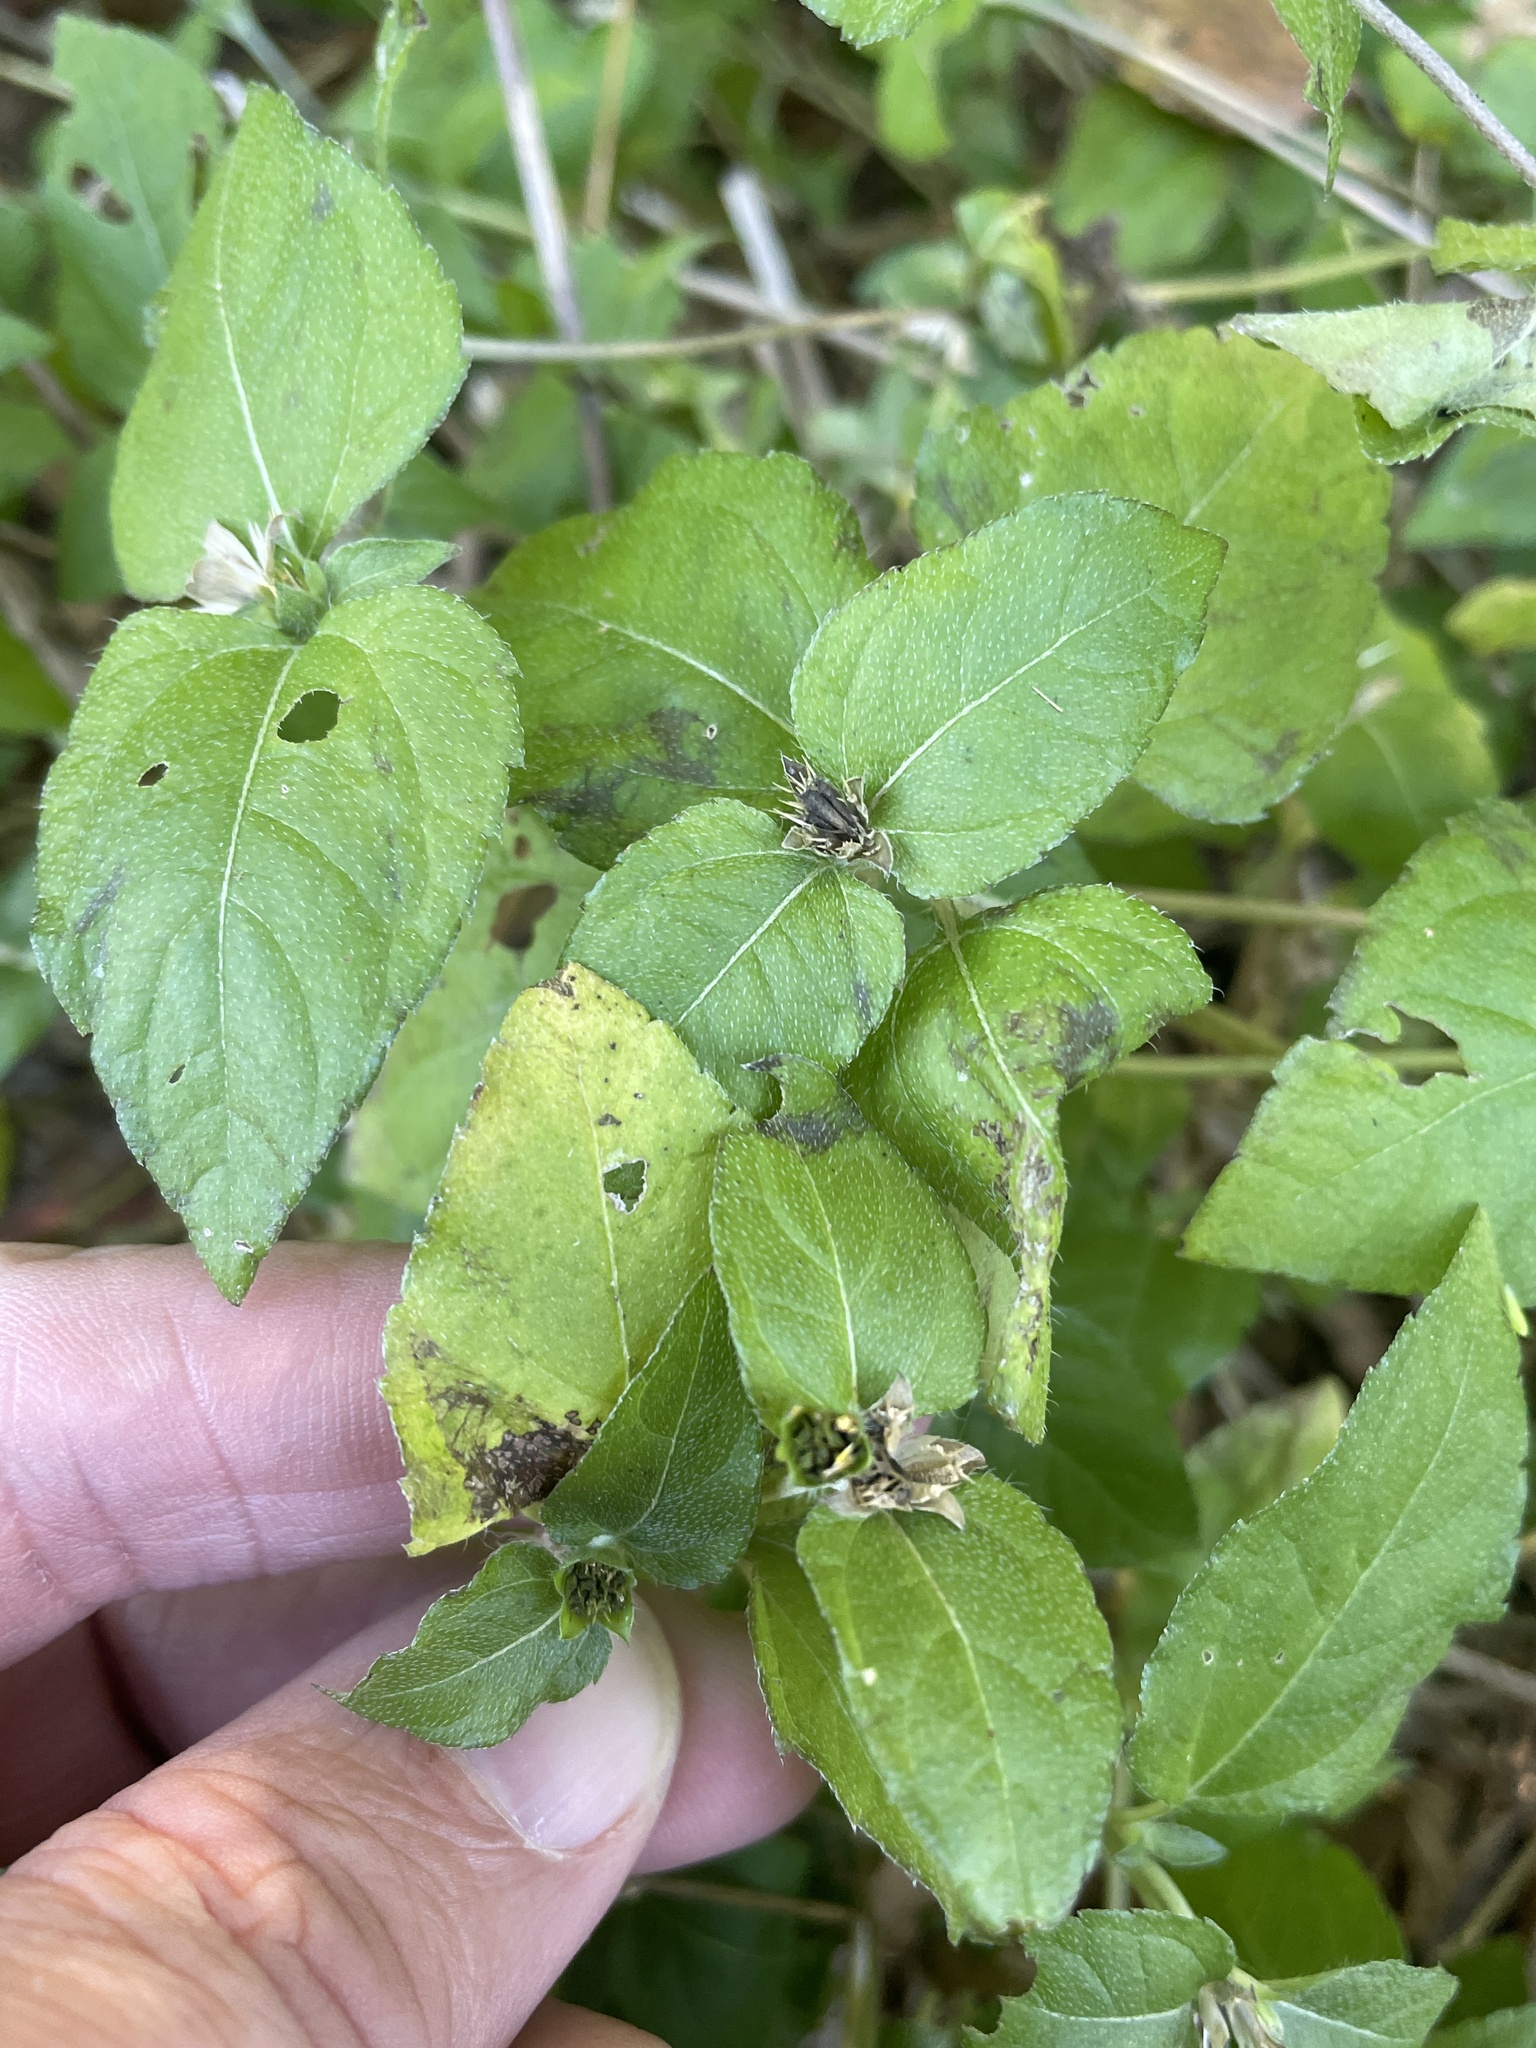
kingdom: Plantae
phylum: Tracheophyta
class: Magnoliopsida
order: Asterales
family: Asteraceae
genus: Calyptocarpus
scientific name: Calyptocarpus vialis
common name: Straggler daisy
